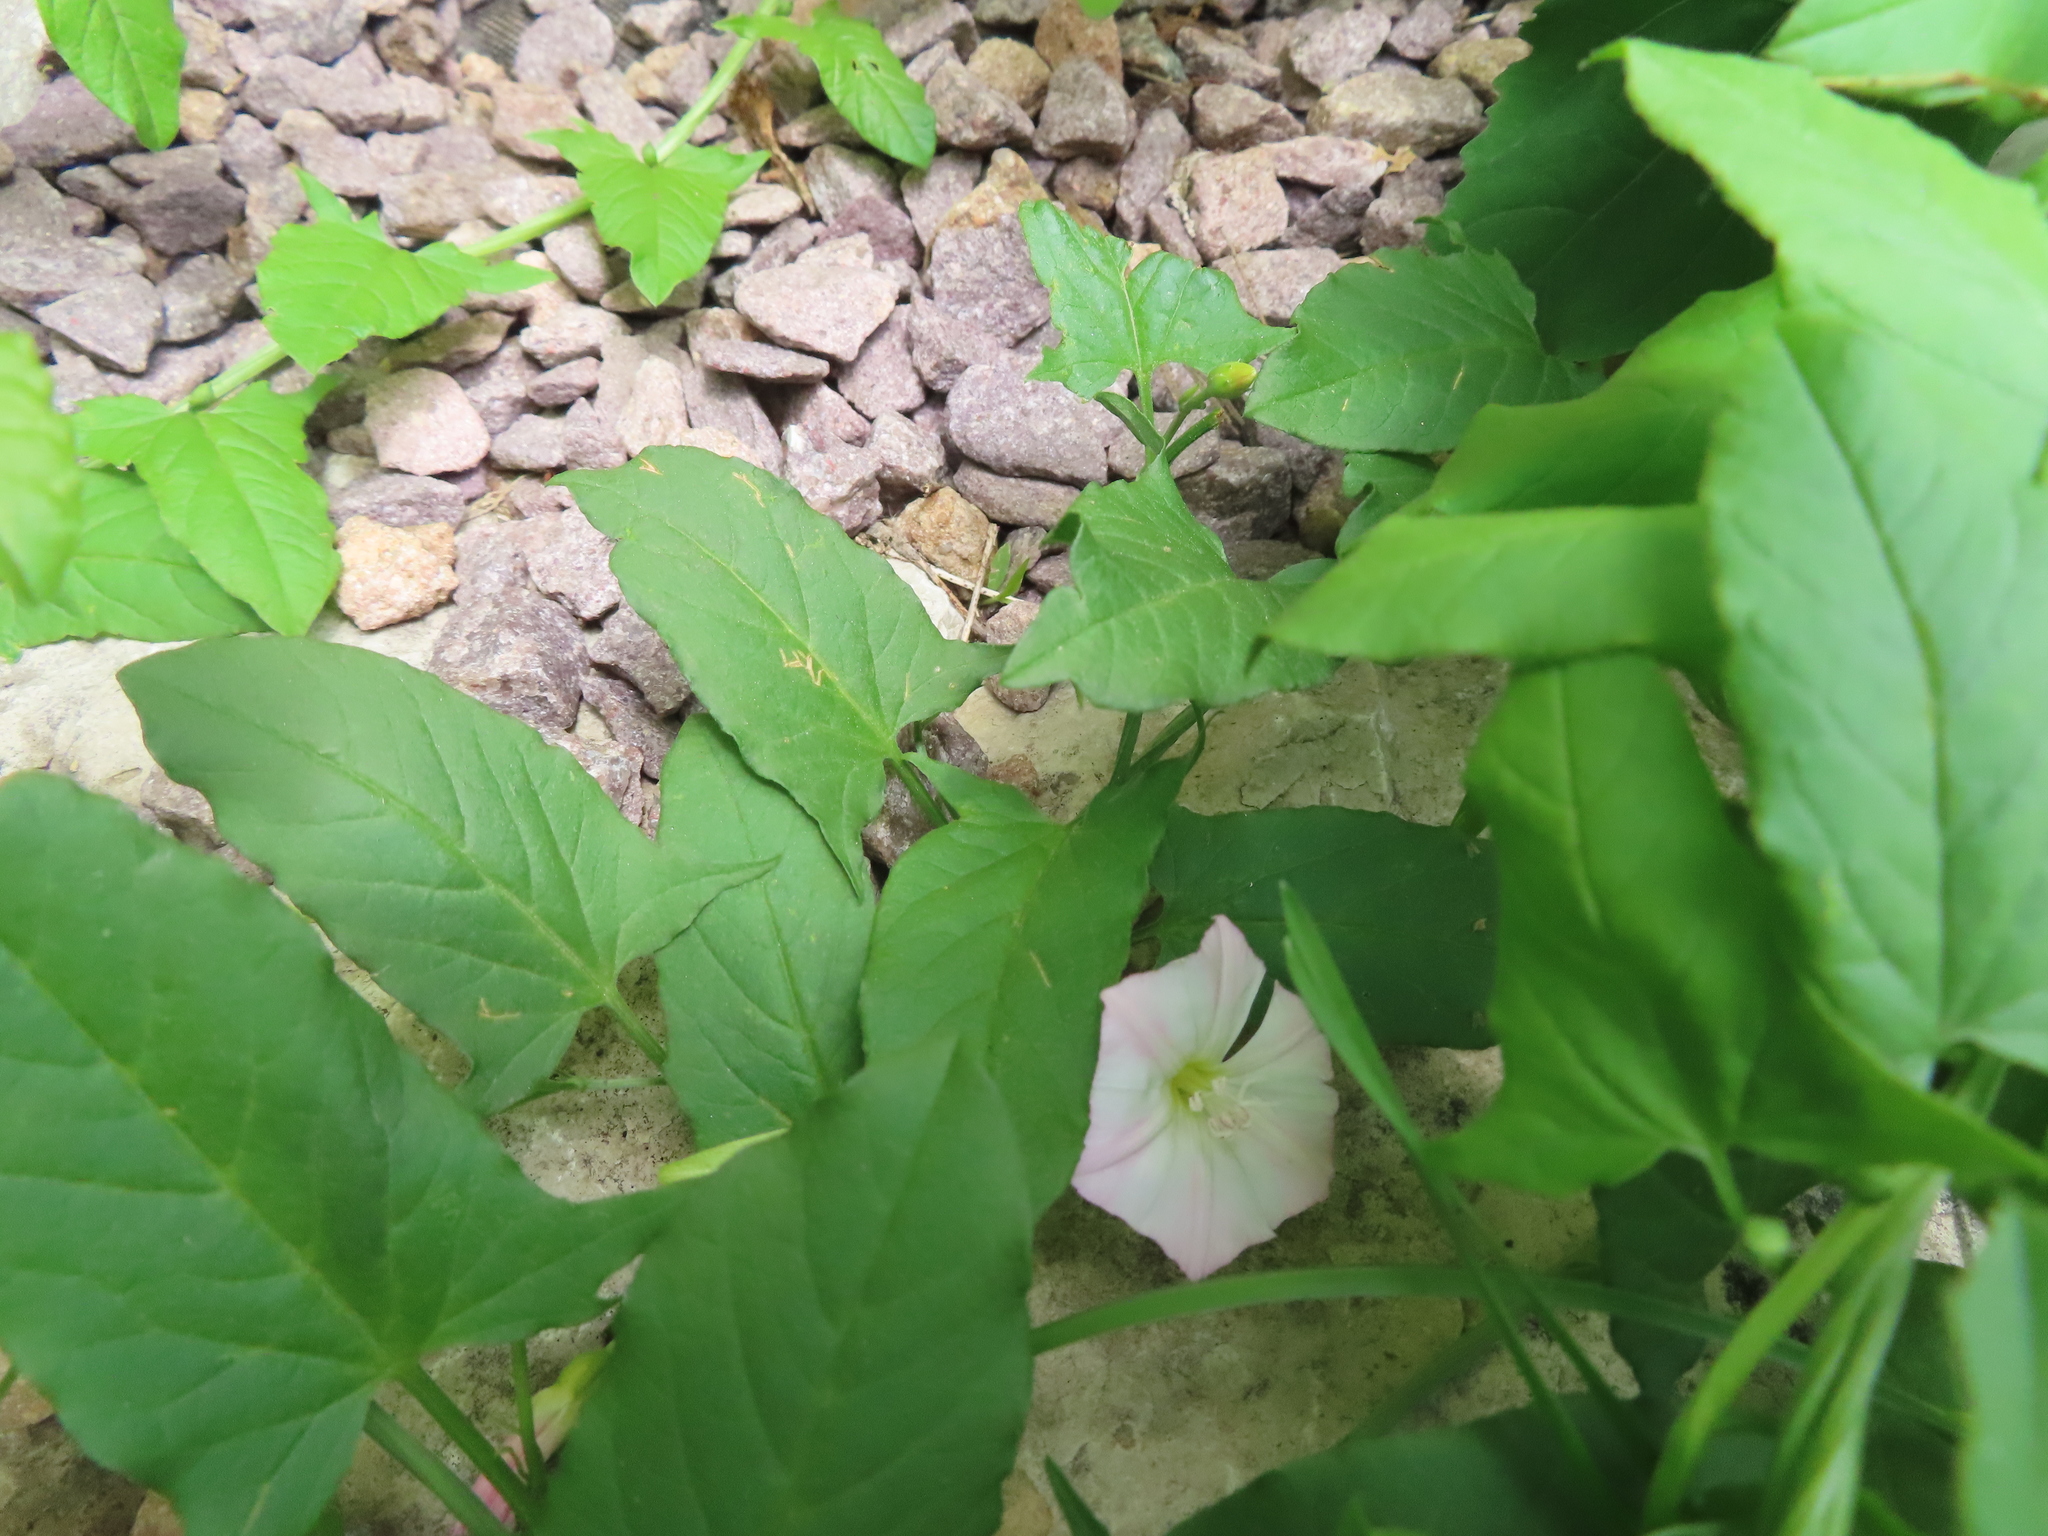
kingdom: Plantae
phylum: Tracheophyta
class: Magnoliopsida
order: Solanales
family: Convolvulaceae
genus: Convolvulus
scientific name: Convolvulus arvensis
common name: Field bindweed
